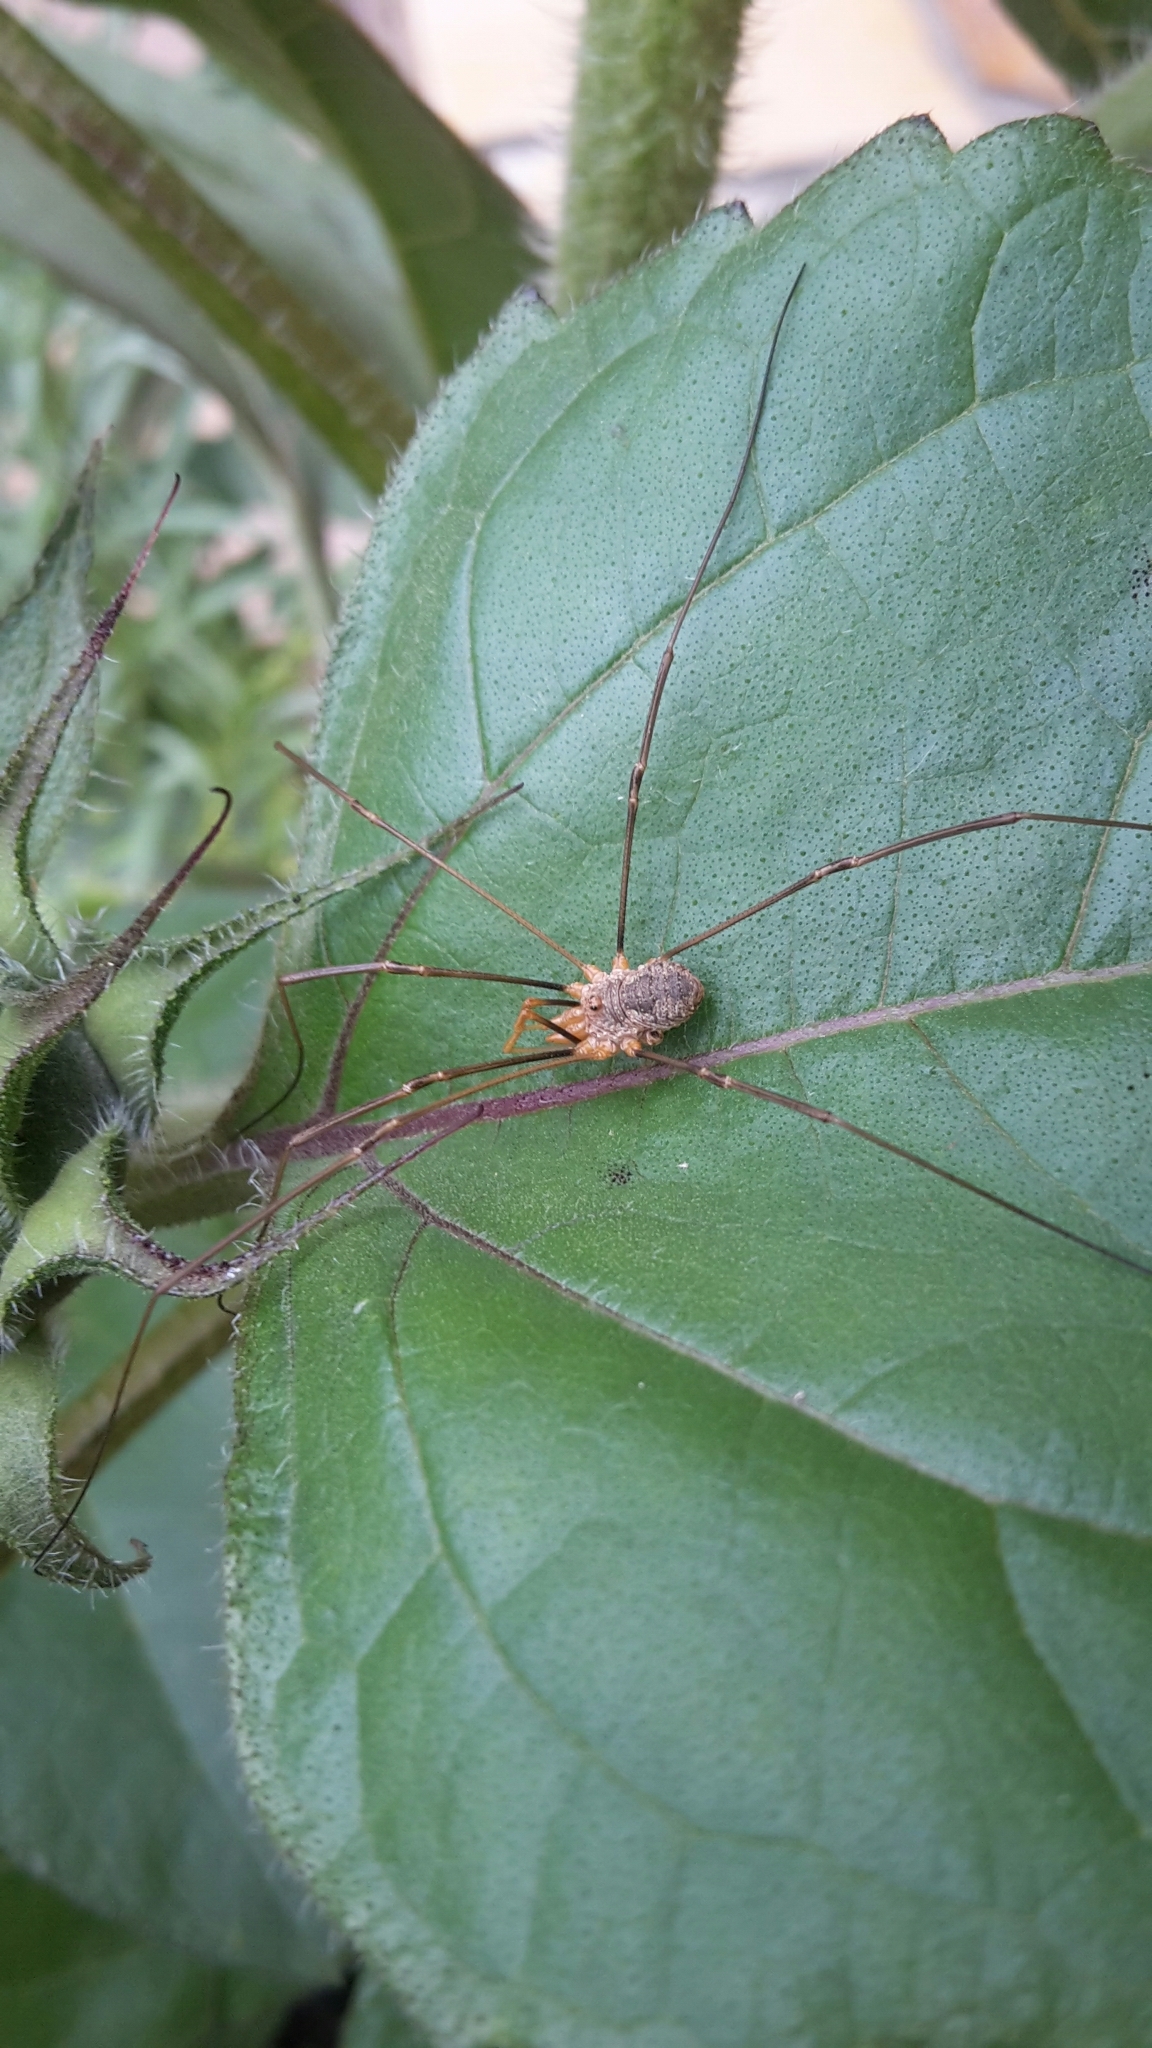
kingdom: Animalia
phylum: Arthropoda
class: Arachnida
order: Opiliones
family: Phalangiidae
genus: Phalangium
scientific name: Phalangium opilio
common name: Daddy longleg
